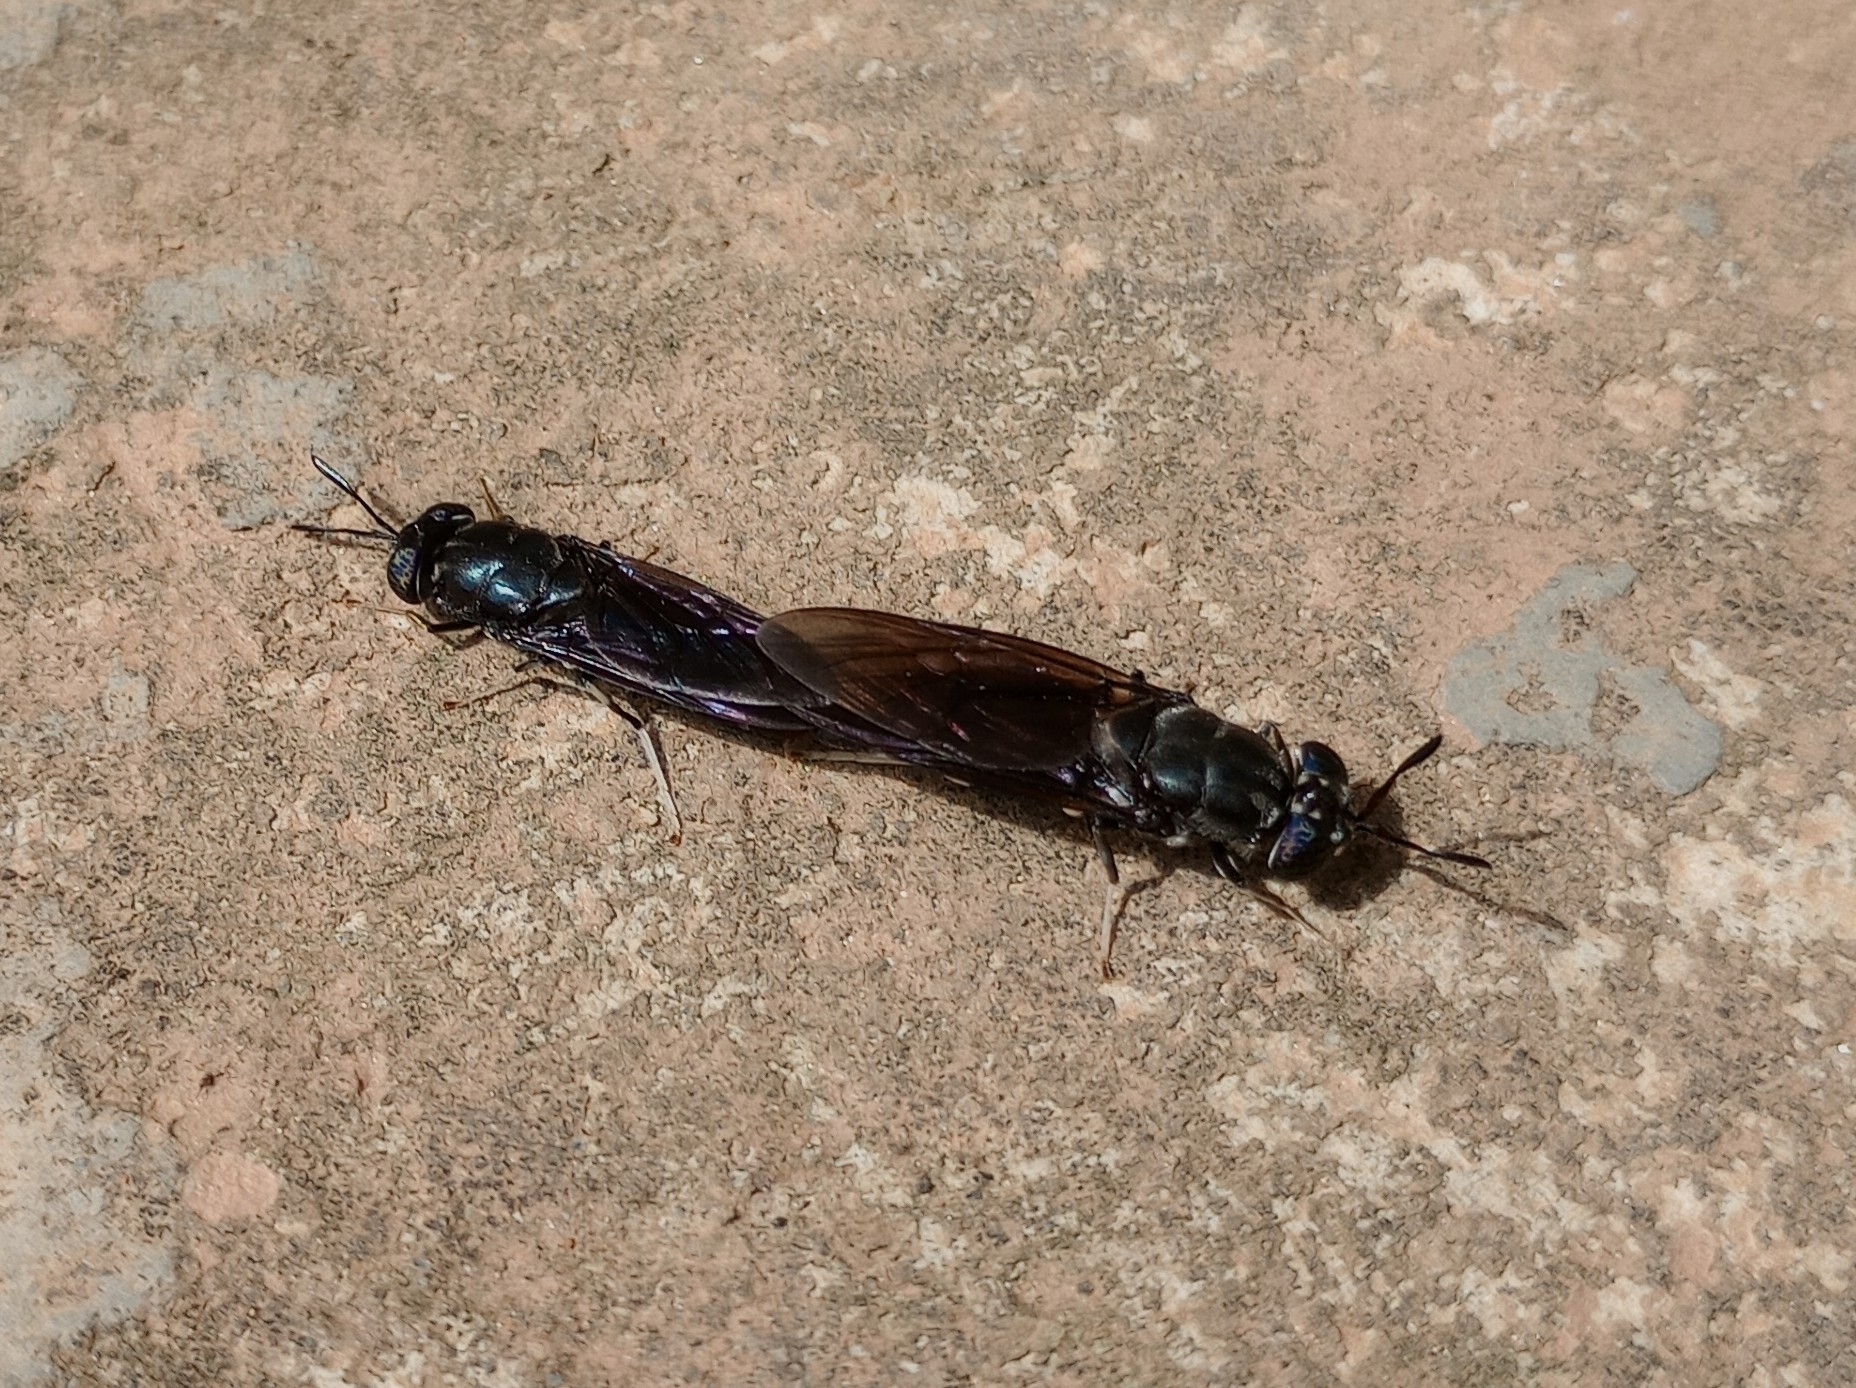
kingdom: Animalia
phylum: Arthropoda
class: Insecta
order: Diptera
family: Stratiomyidae
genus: Hermetia
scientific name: Hermetia illucens
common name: Black soldier fly
